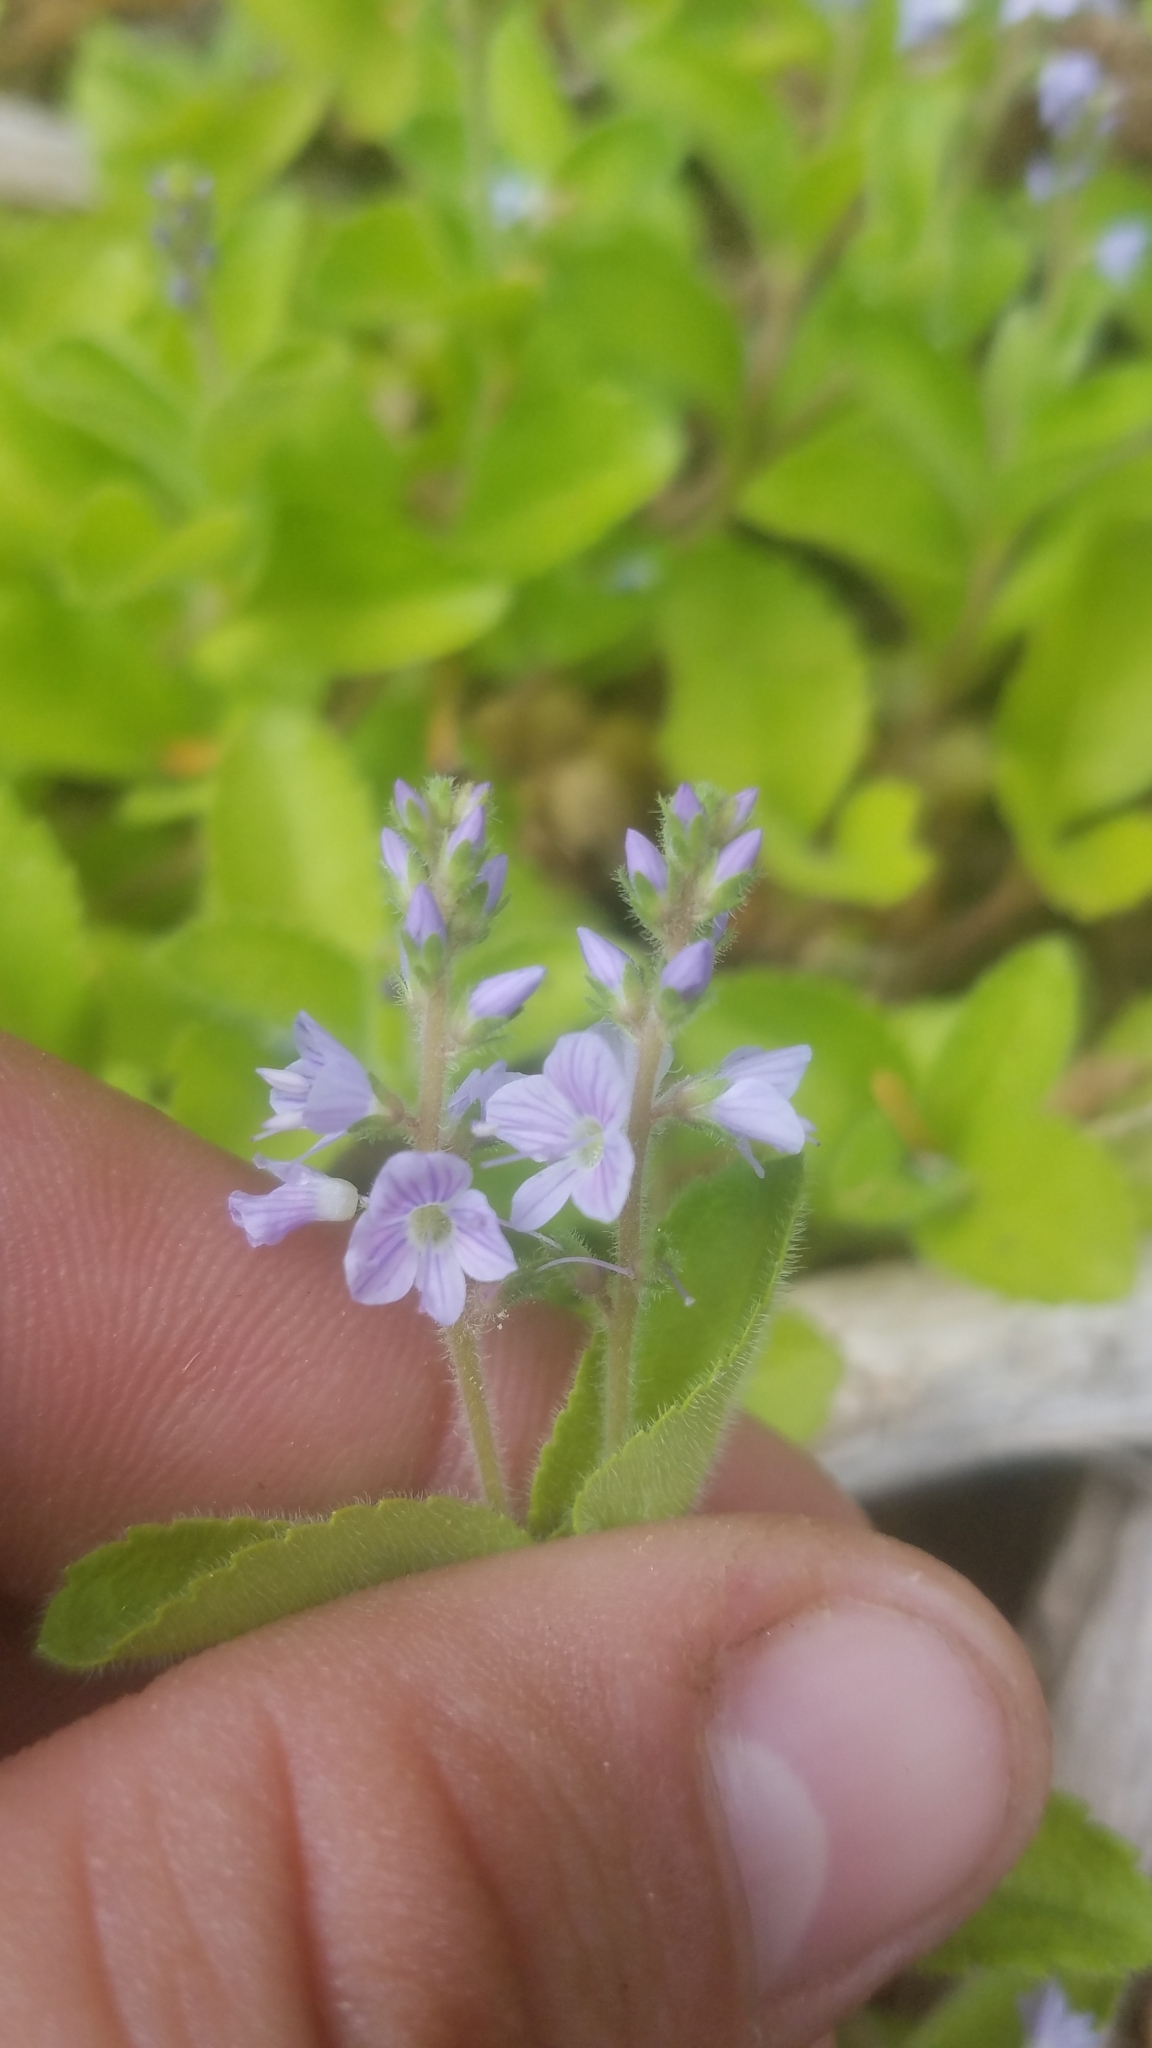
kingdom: Plantae
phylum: Tracheophyta
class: Magnoliopsida
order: Lamiales
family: Plantaginaceae
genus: Veronica
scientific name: Veronica officinalis
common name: Common speedwell
